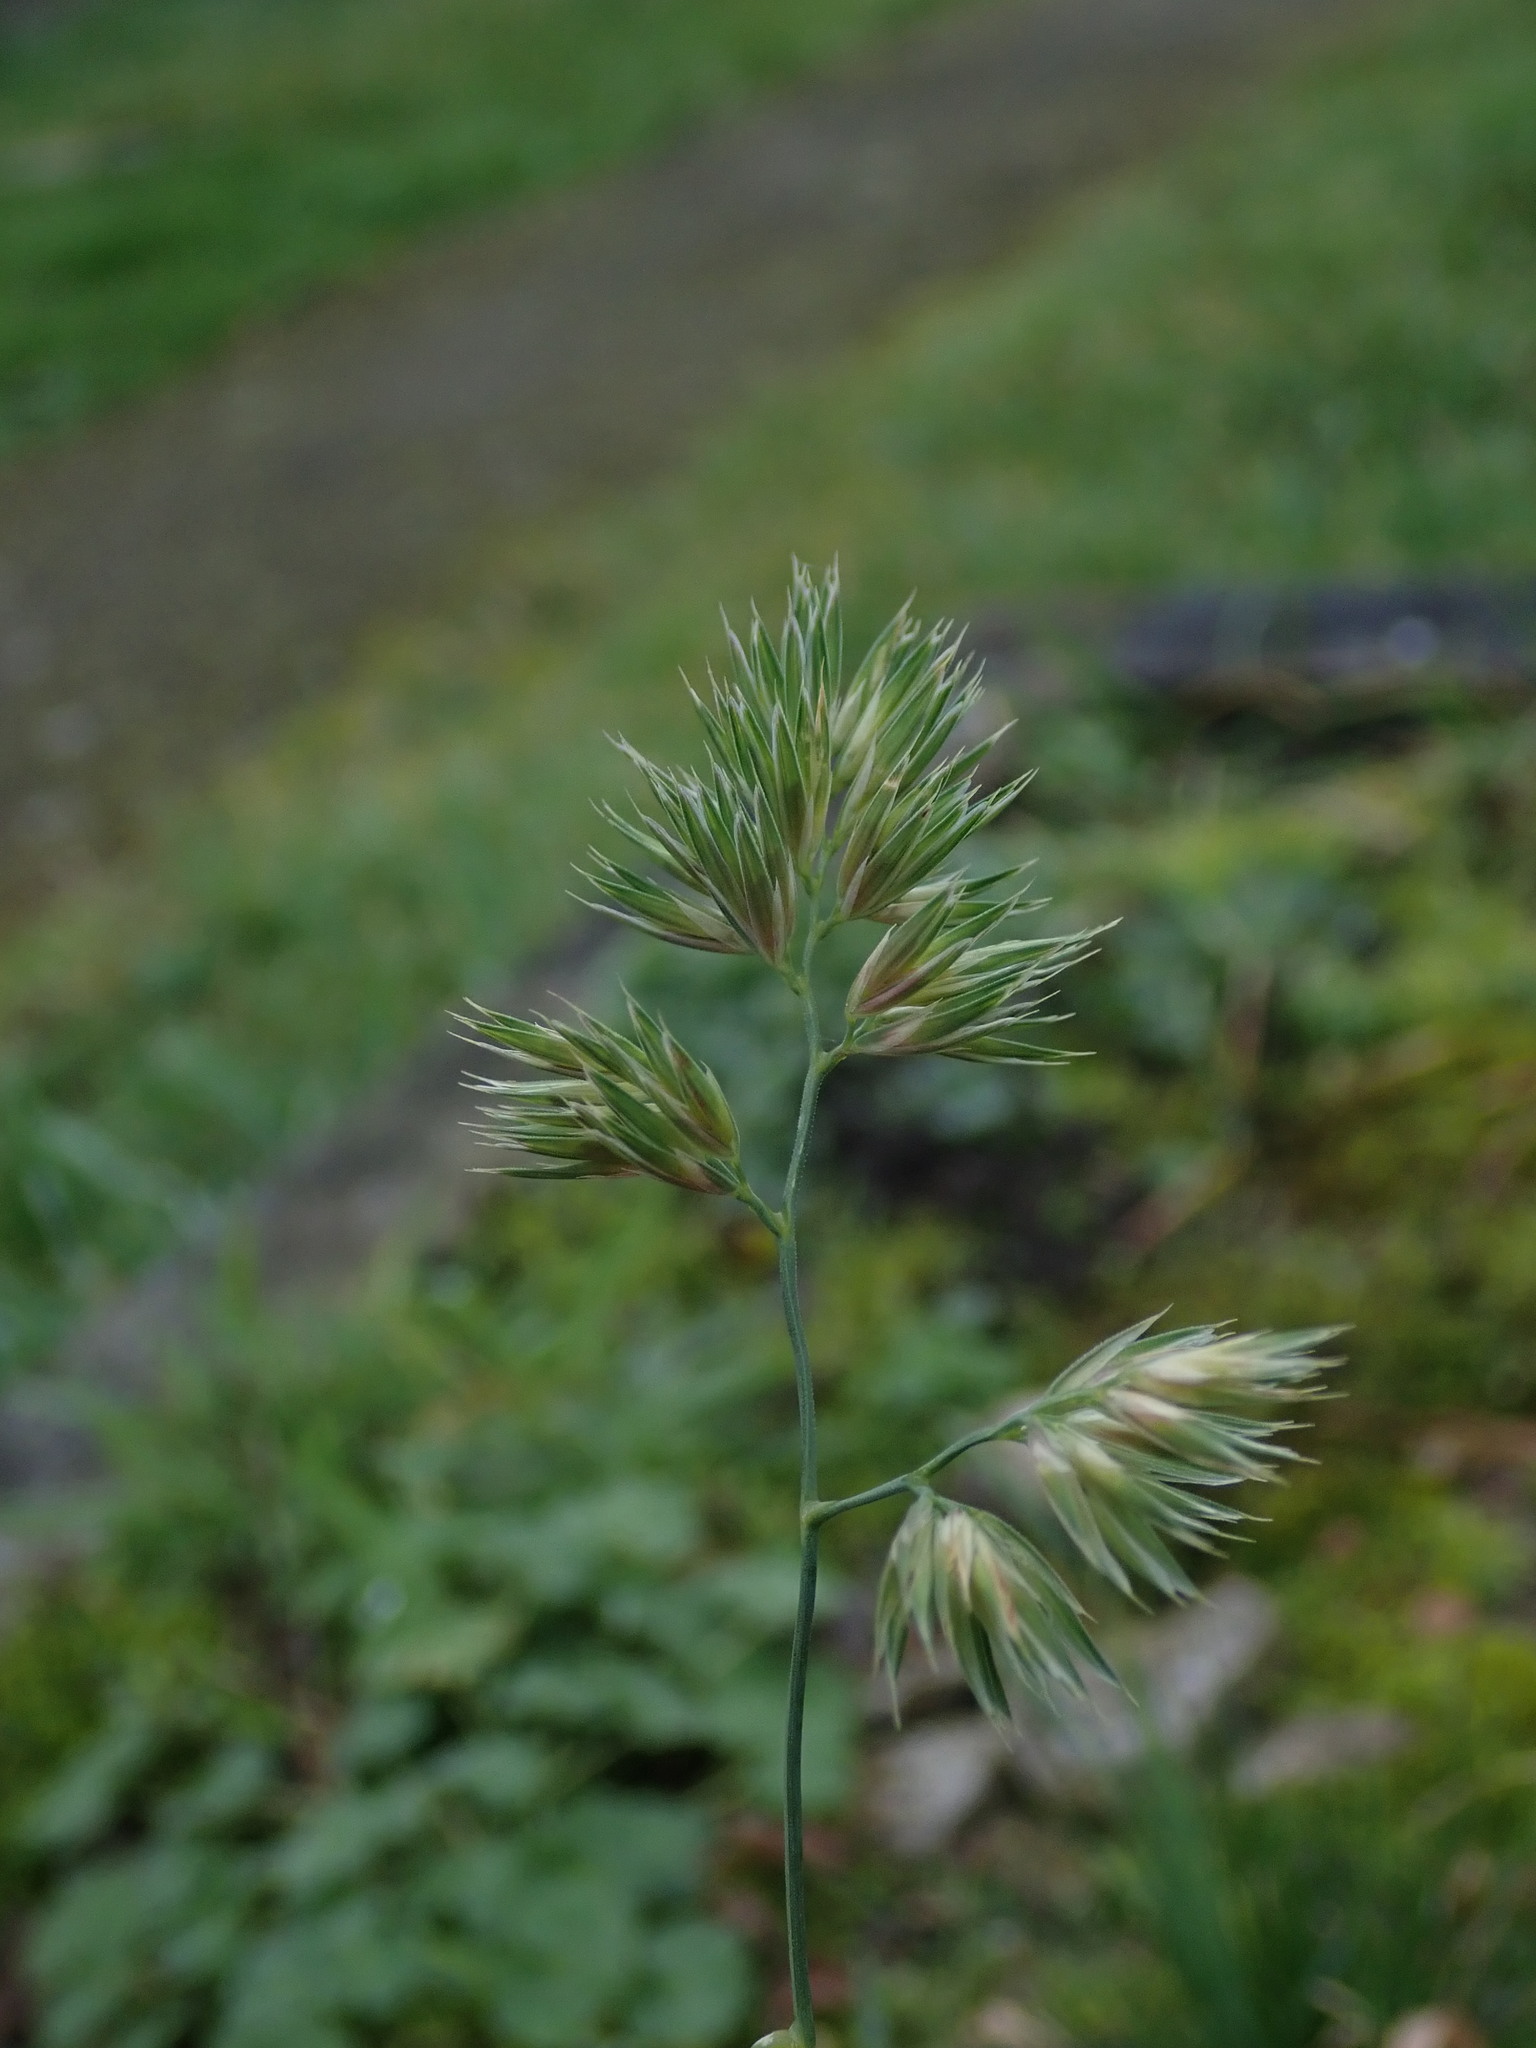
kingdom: Plantae
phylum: Tracheophyta
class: Liliopsida
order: Poales
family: Poaceae
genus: Dactylis
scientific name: Dactylis glomerata
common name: Orchardgrass
